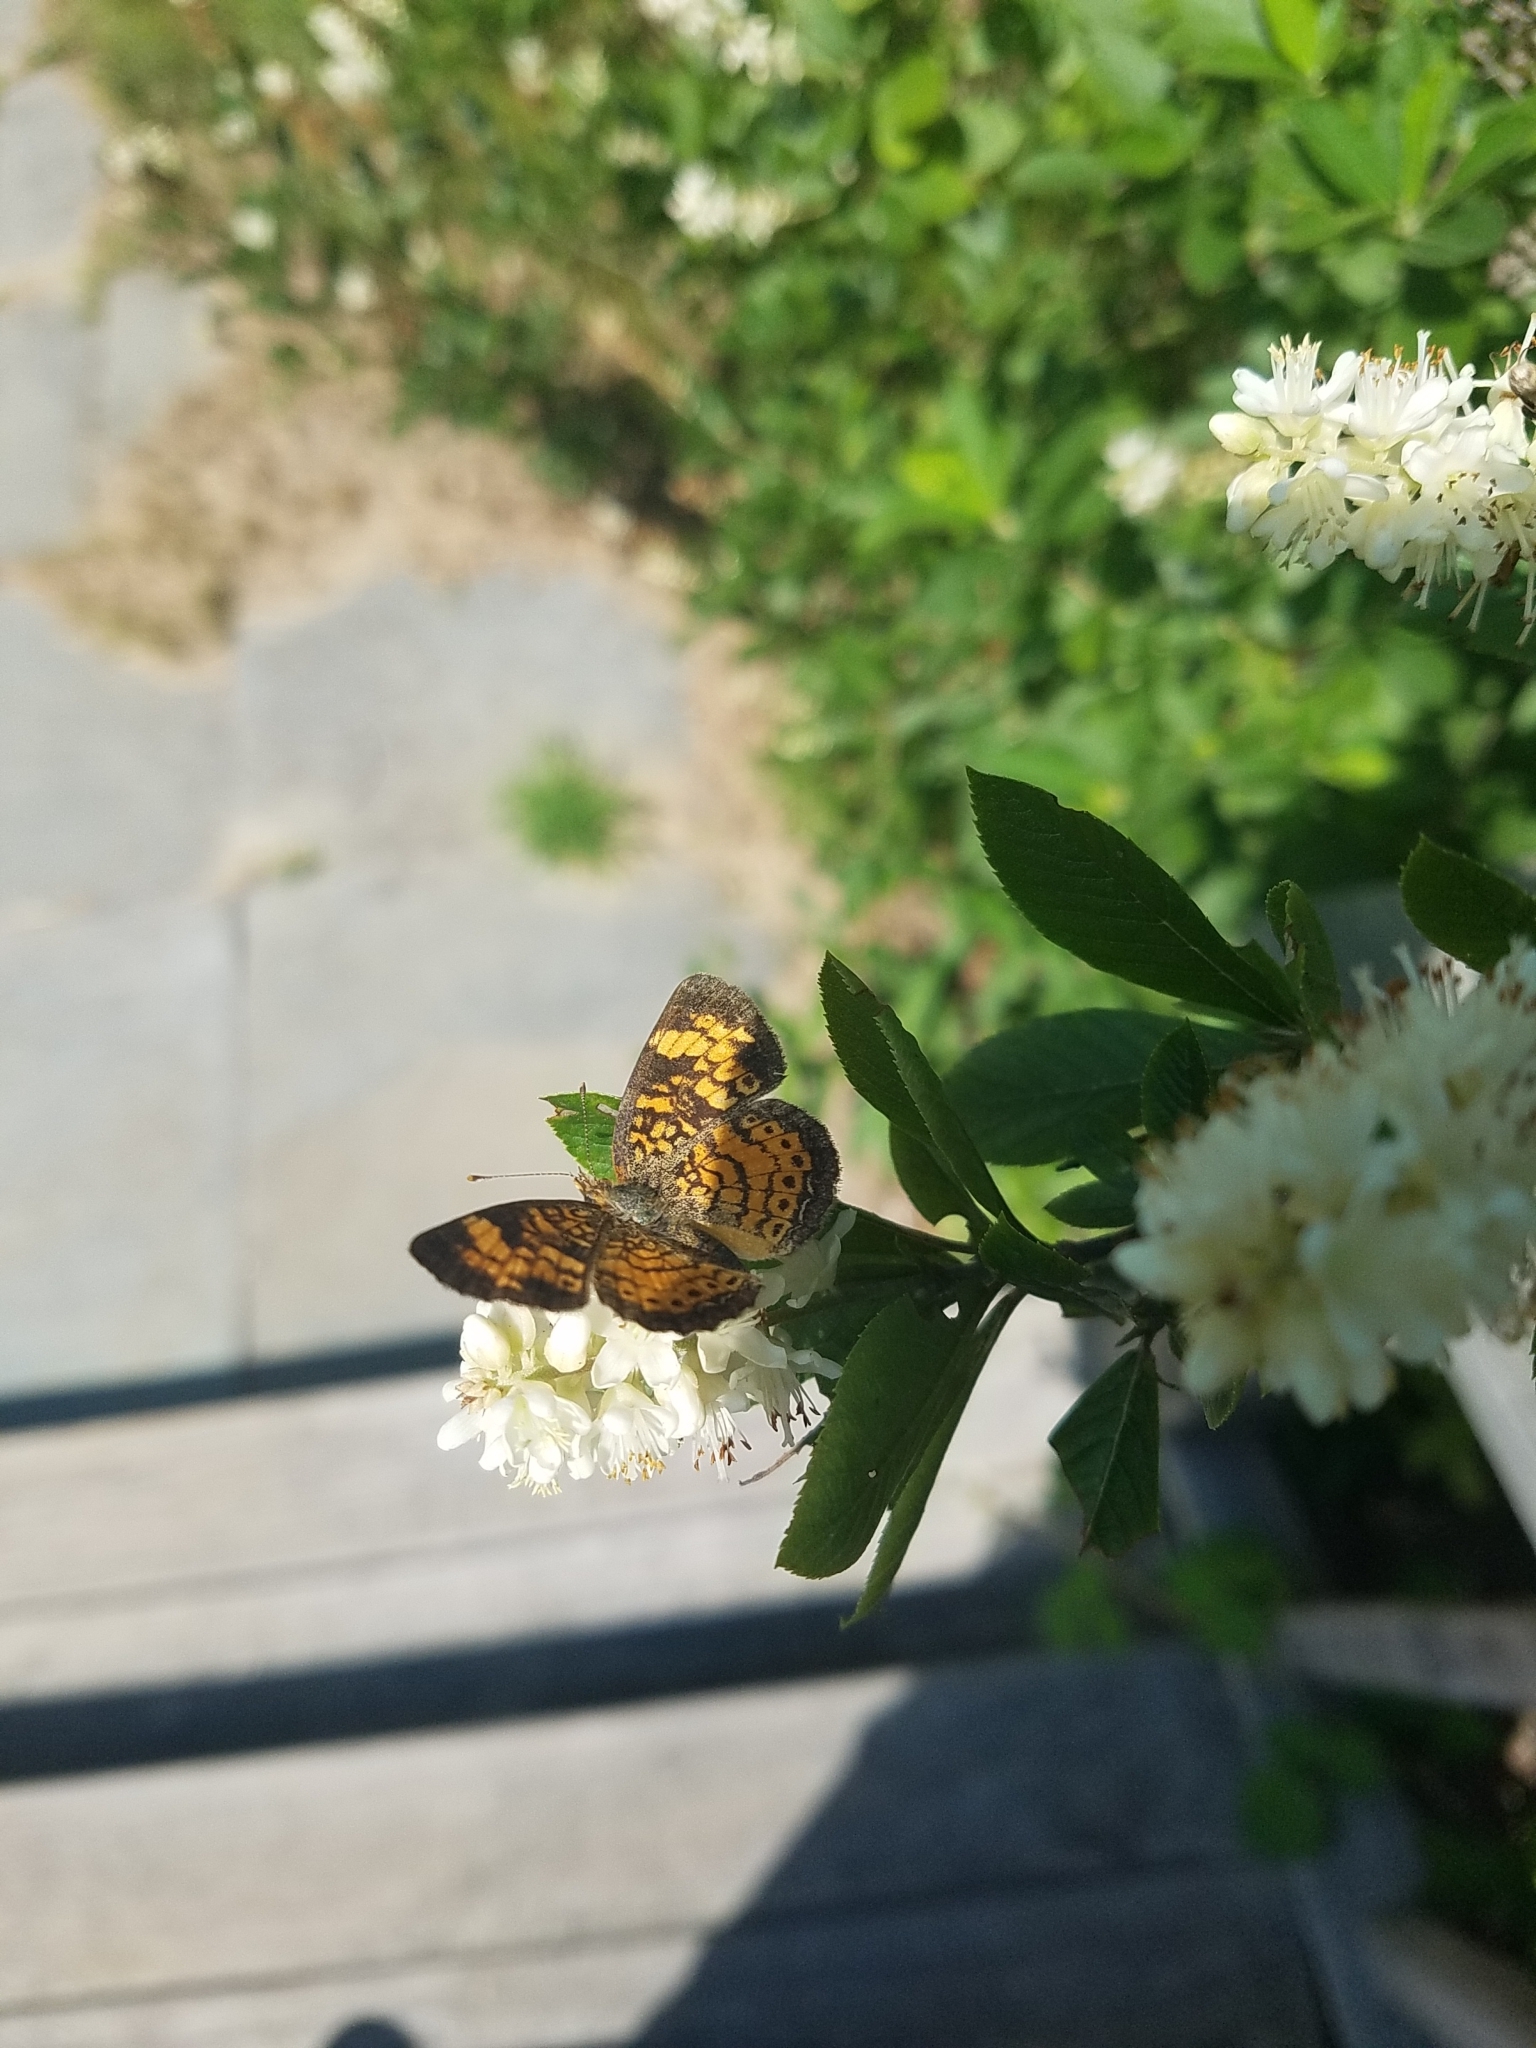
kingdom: Animalia
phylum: Arthropoda
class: Insecta
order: Lepidoptera
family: Nymphalidae
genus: Phyciodes
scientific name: Phyciodes tharos
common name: Pearl crescent
